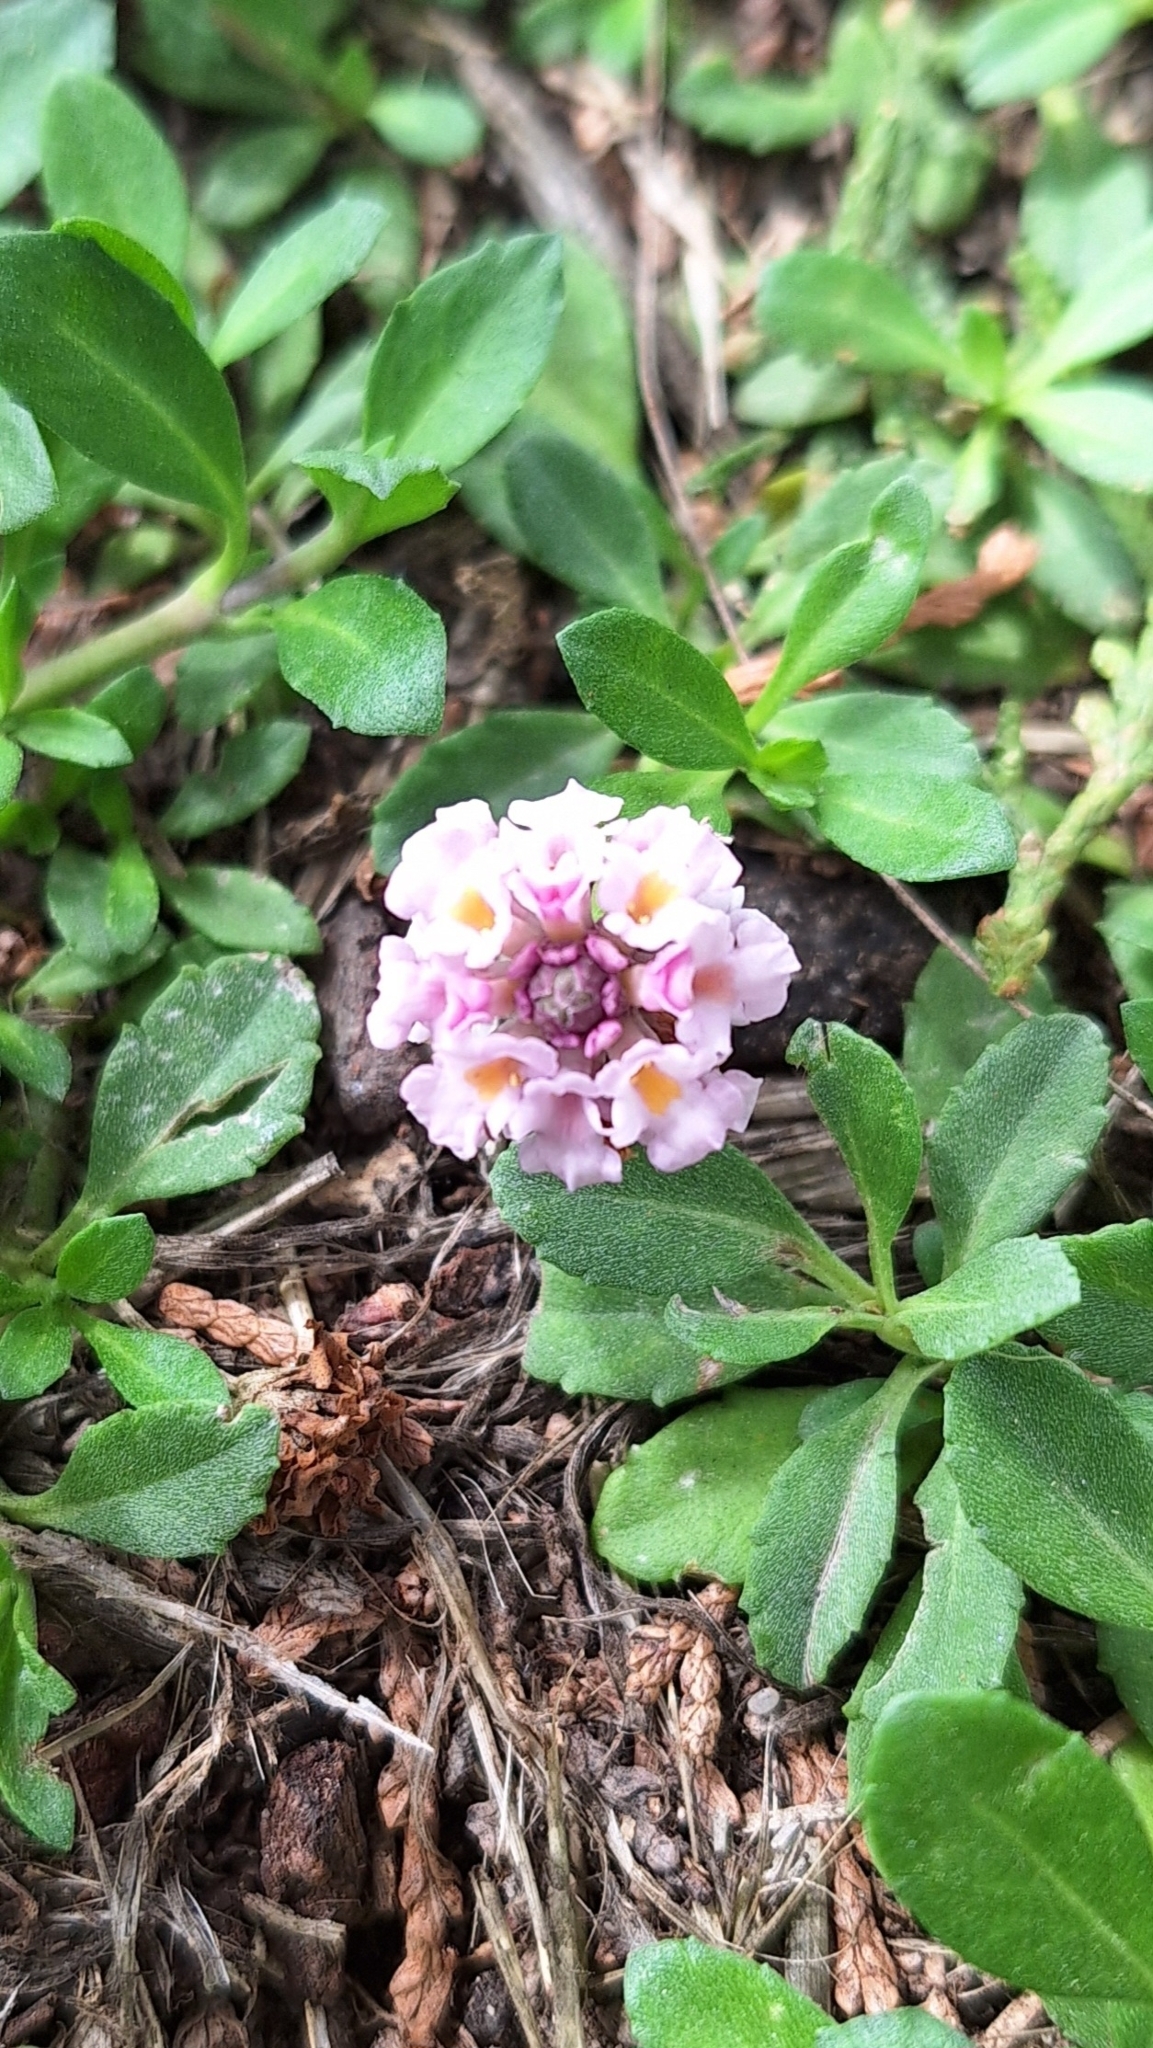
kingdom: Plantae
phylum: Tracheophyta
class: Magnoliopsida
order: Lamiales
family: Verbenaceae
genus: Phyla
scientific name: Phyla nodiflora
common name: Frogfruit
